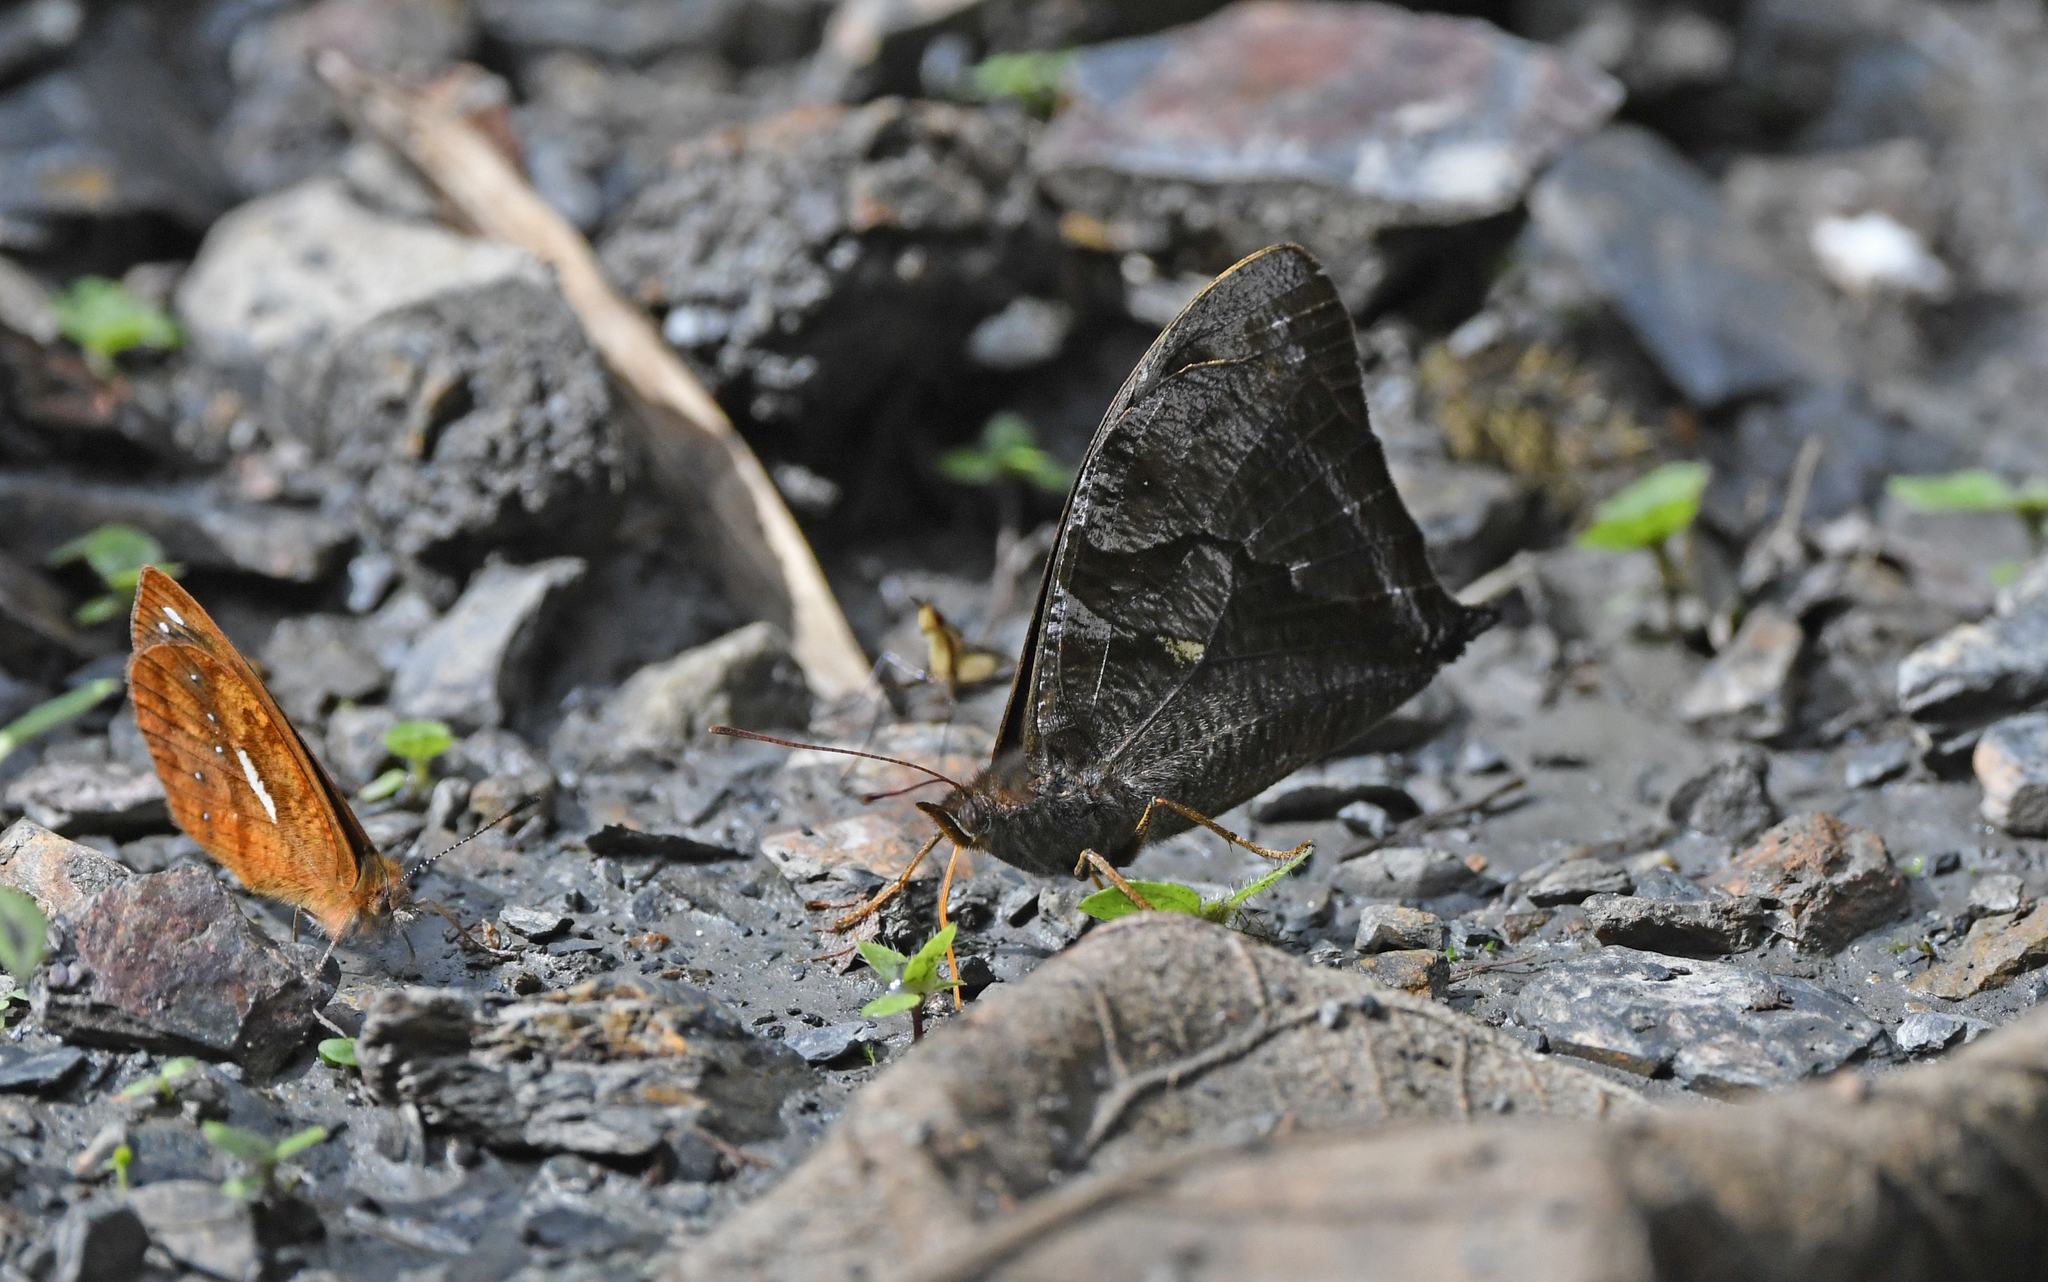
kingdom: Animalia
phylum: Arthropoda
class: Insecta
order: Lepidoptera
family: Nymphalidae
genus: Corades
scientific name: Corades medeba
